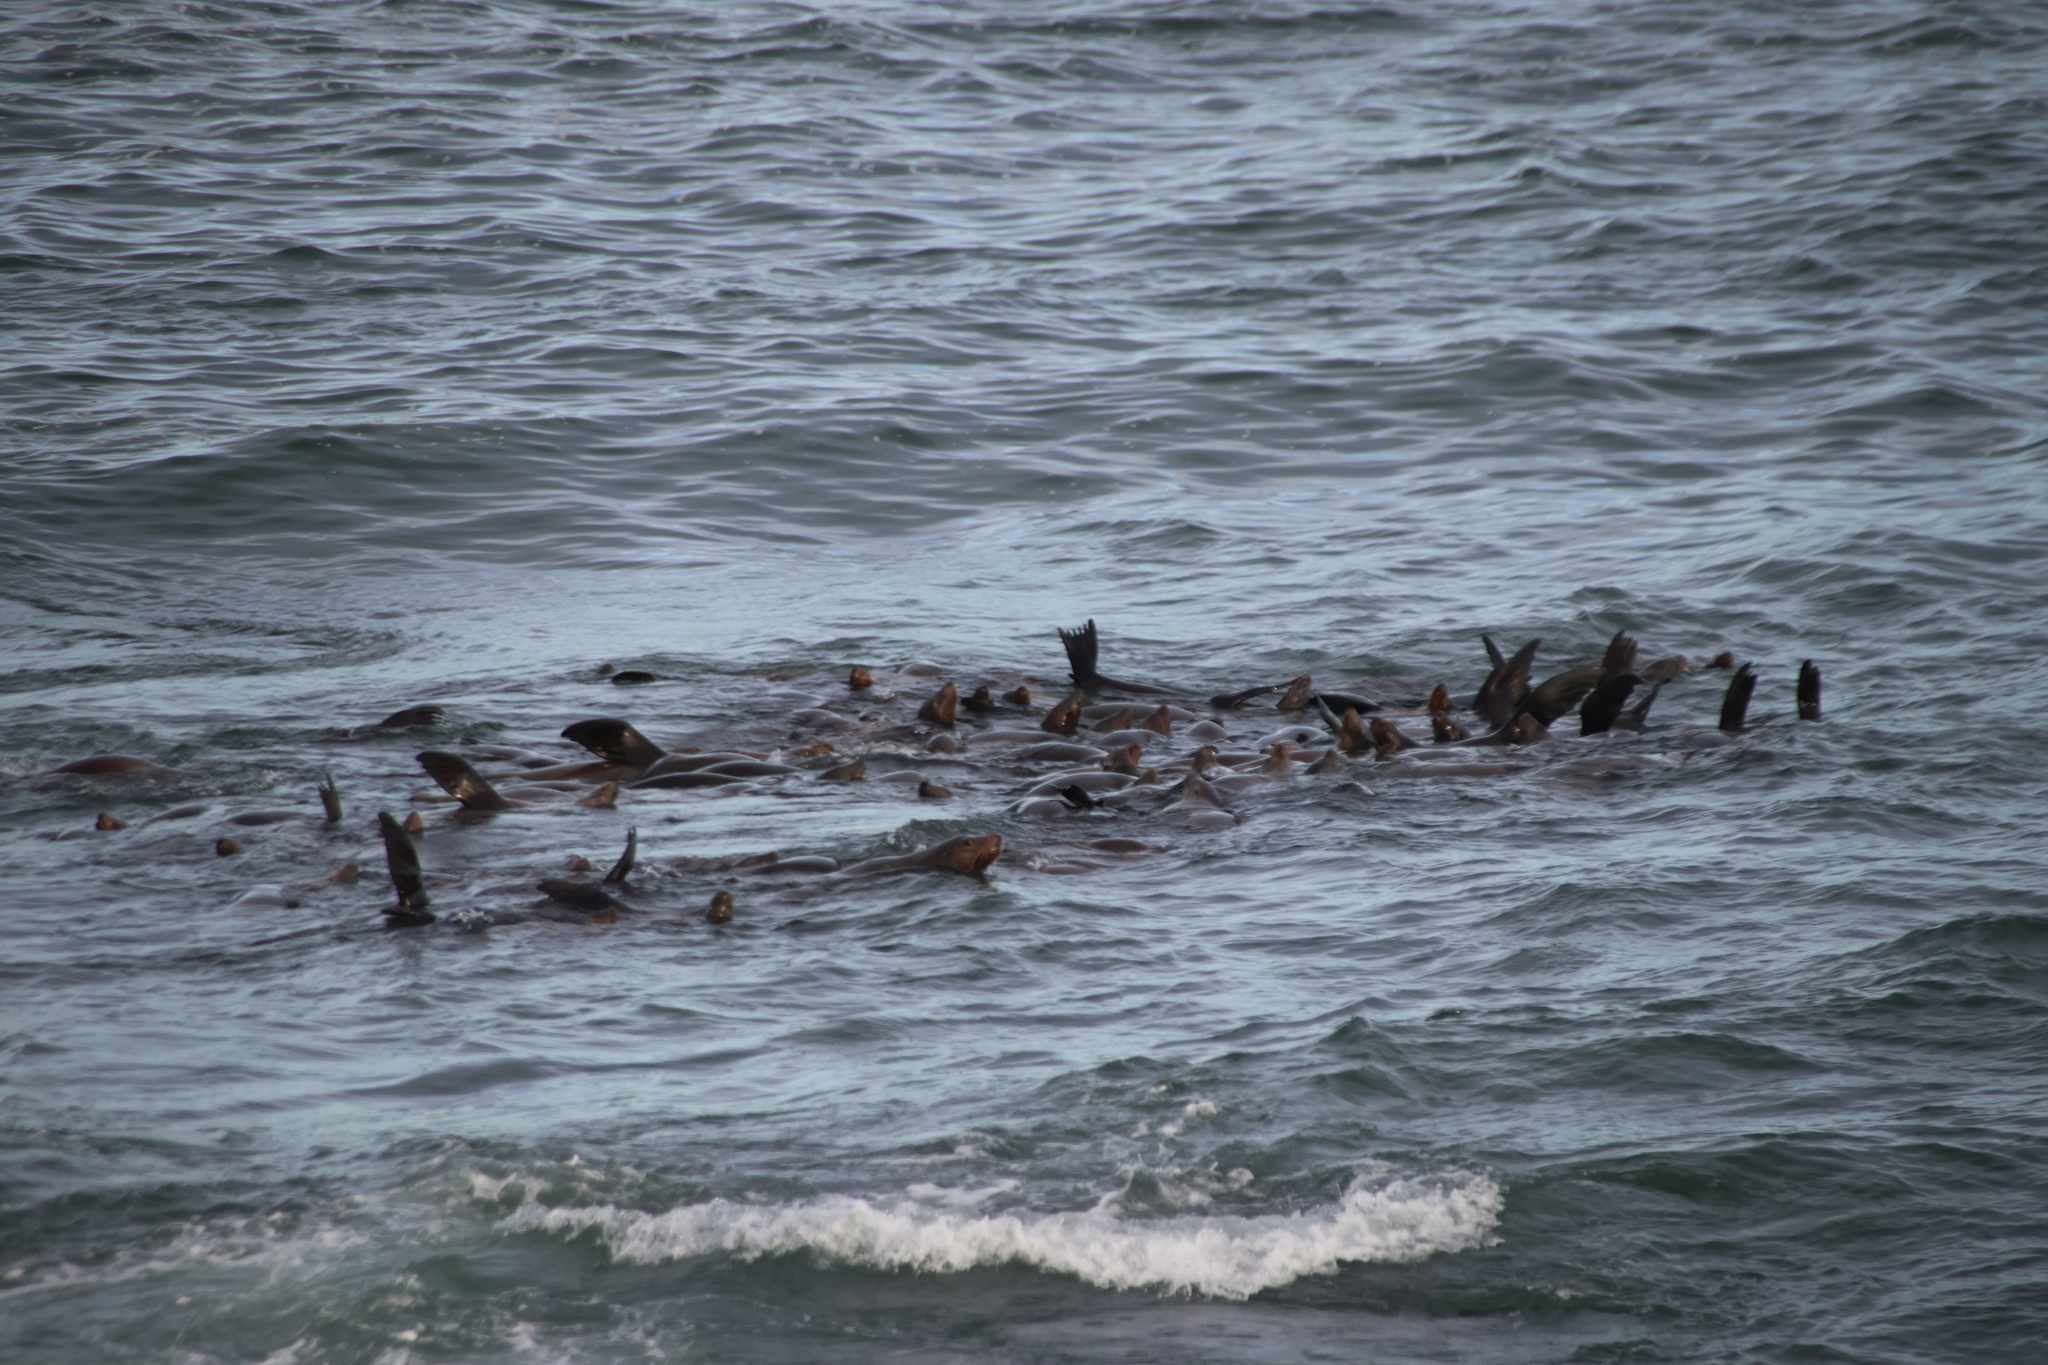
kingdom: Animalia
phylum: Chordata
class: Mammalia
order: Carnivora
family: Otariidae
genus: Zalophus
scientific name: Zalophus californianus
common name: California sea lion
